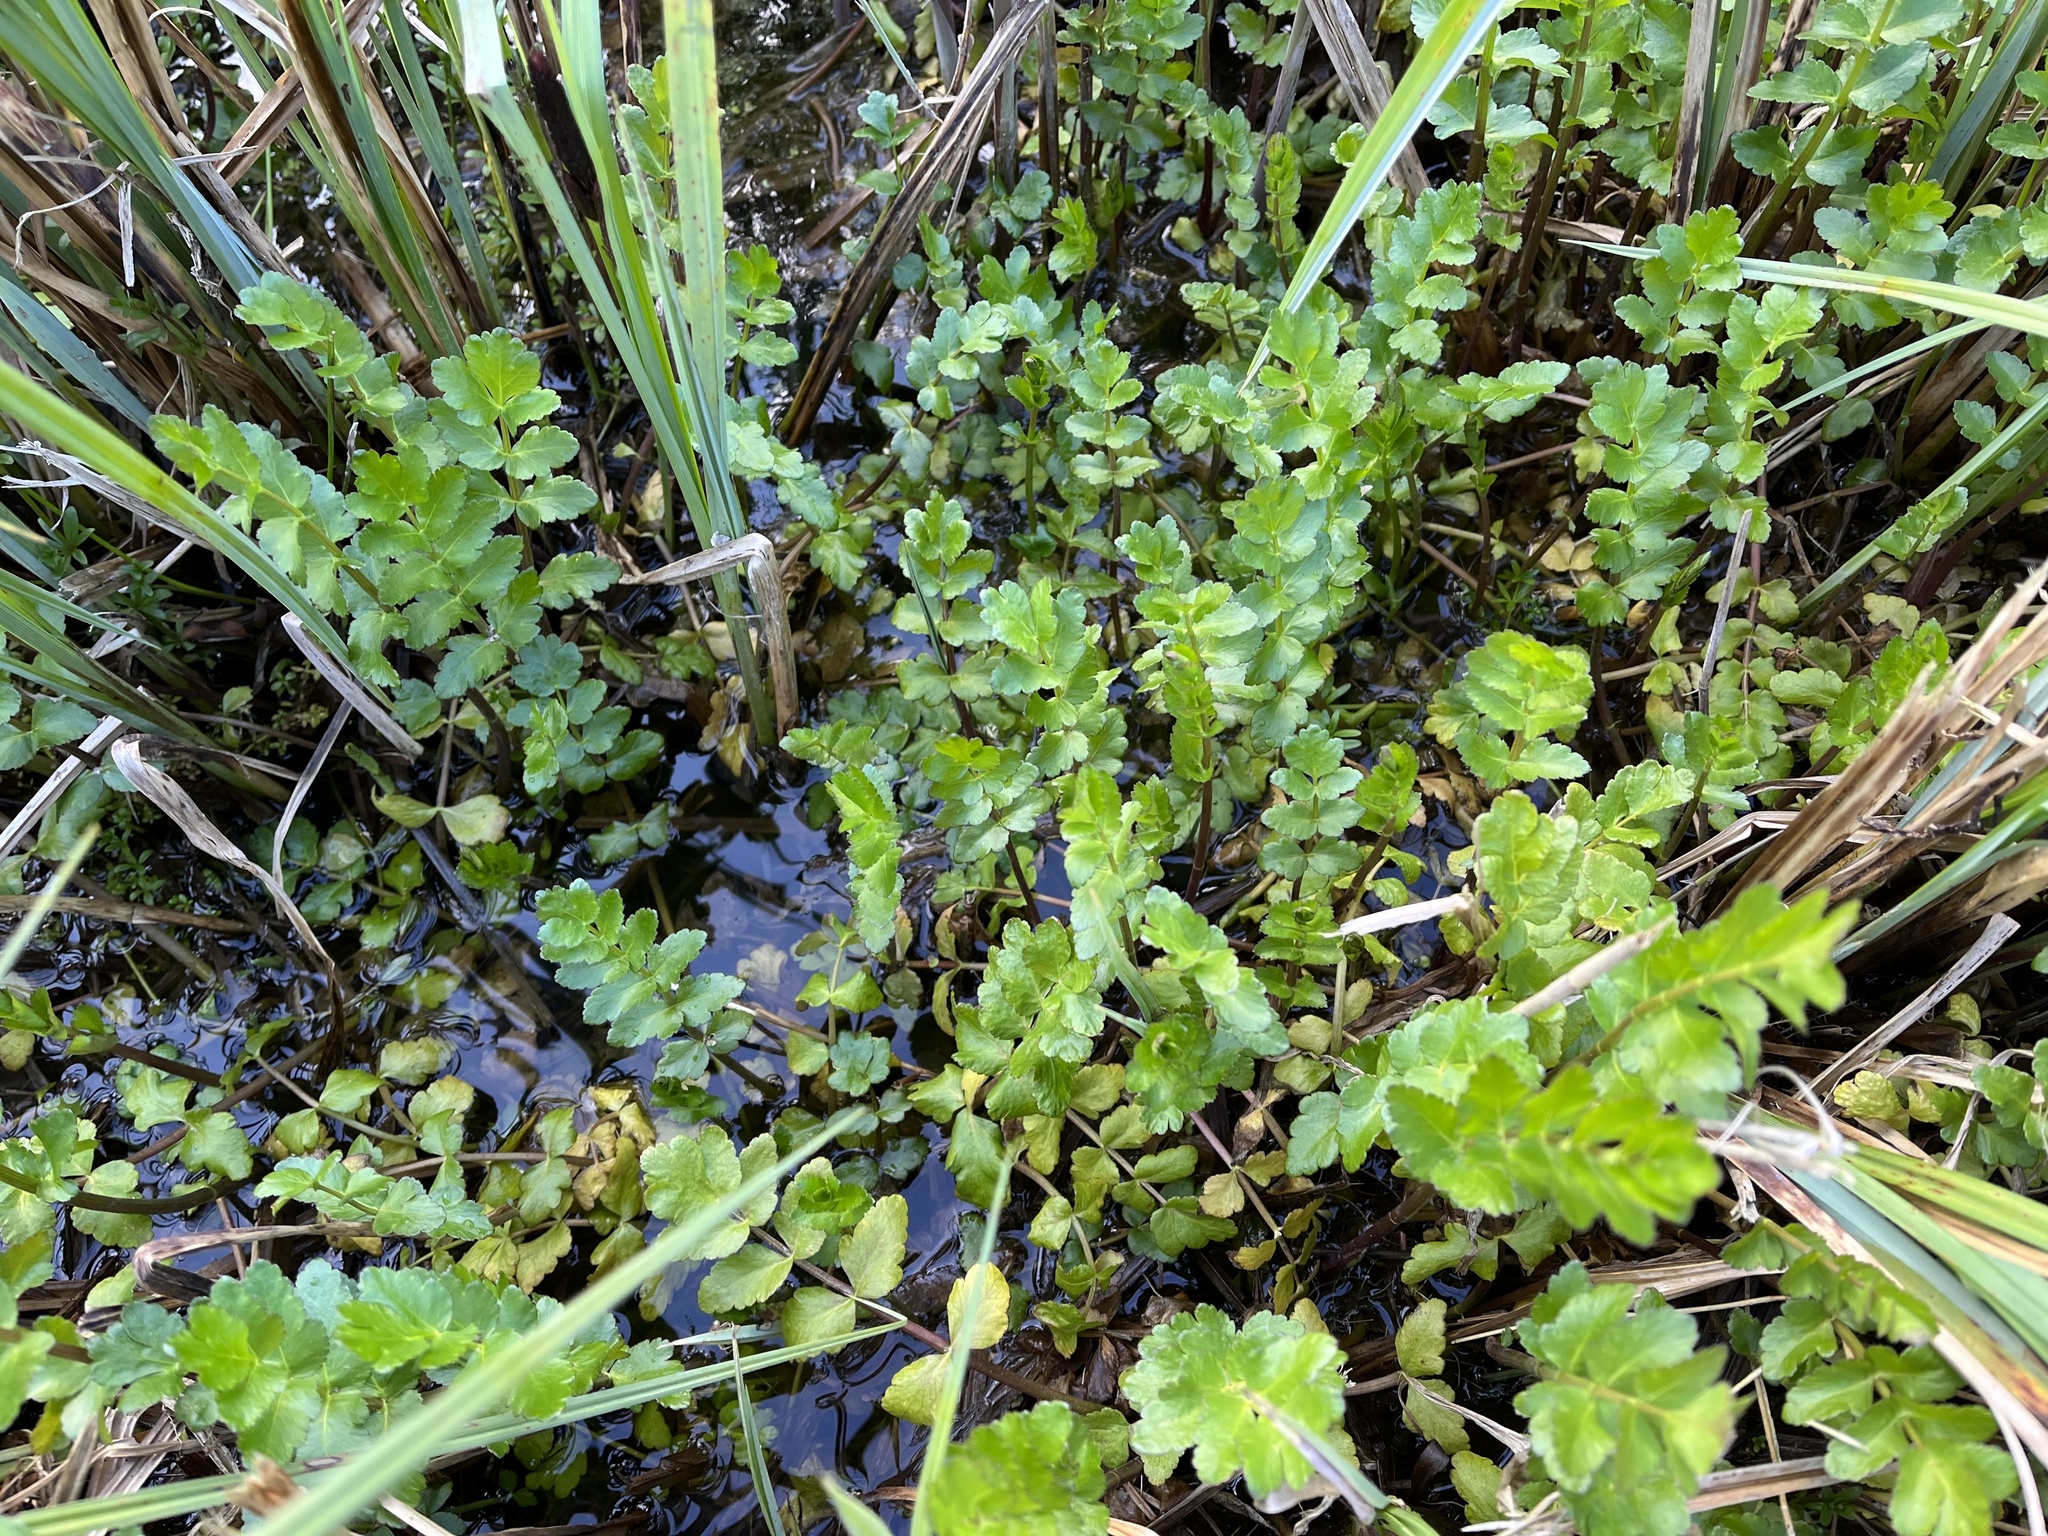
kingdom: Plantae
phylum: Tracheophyta
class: Magnoliopsida
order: Apiales
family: Apiaceae
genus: Berula
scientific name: Berula erecta
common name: Lesser water-parsnip
